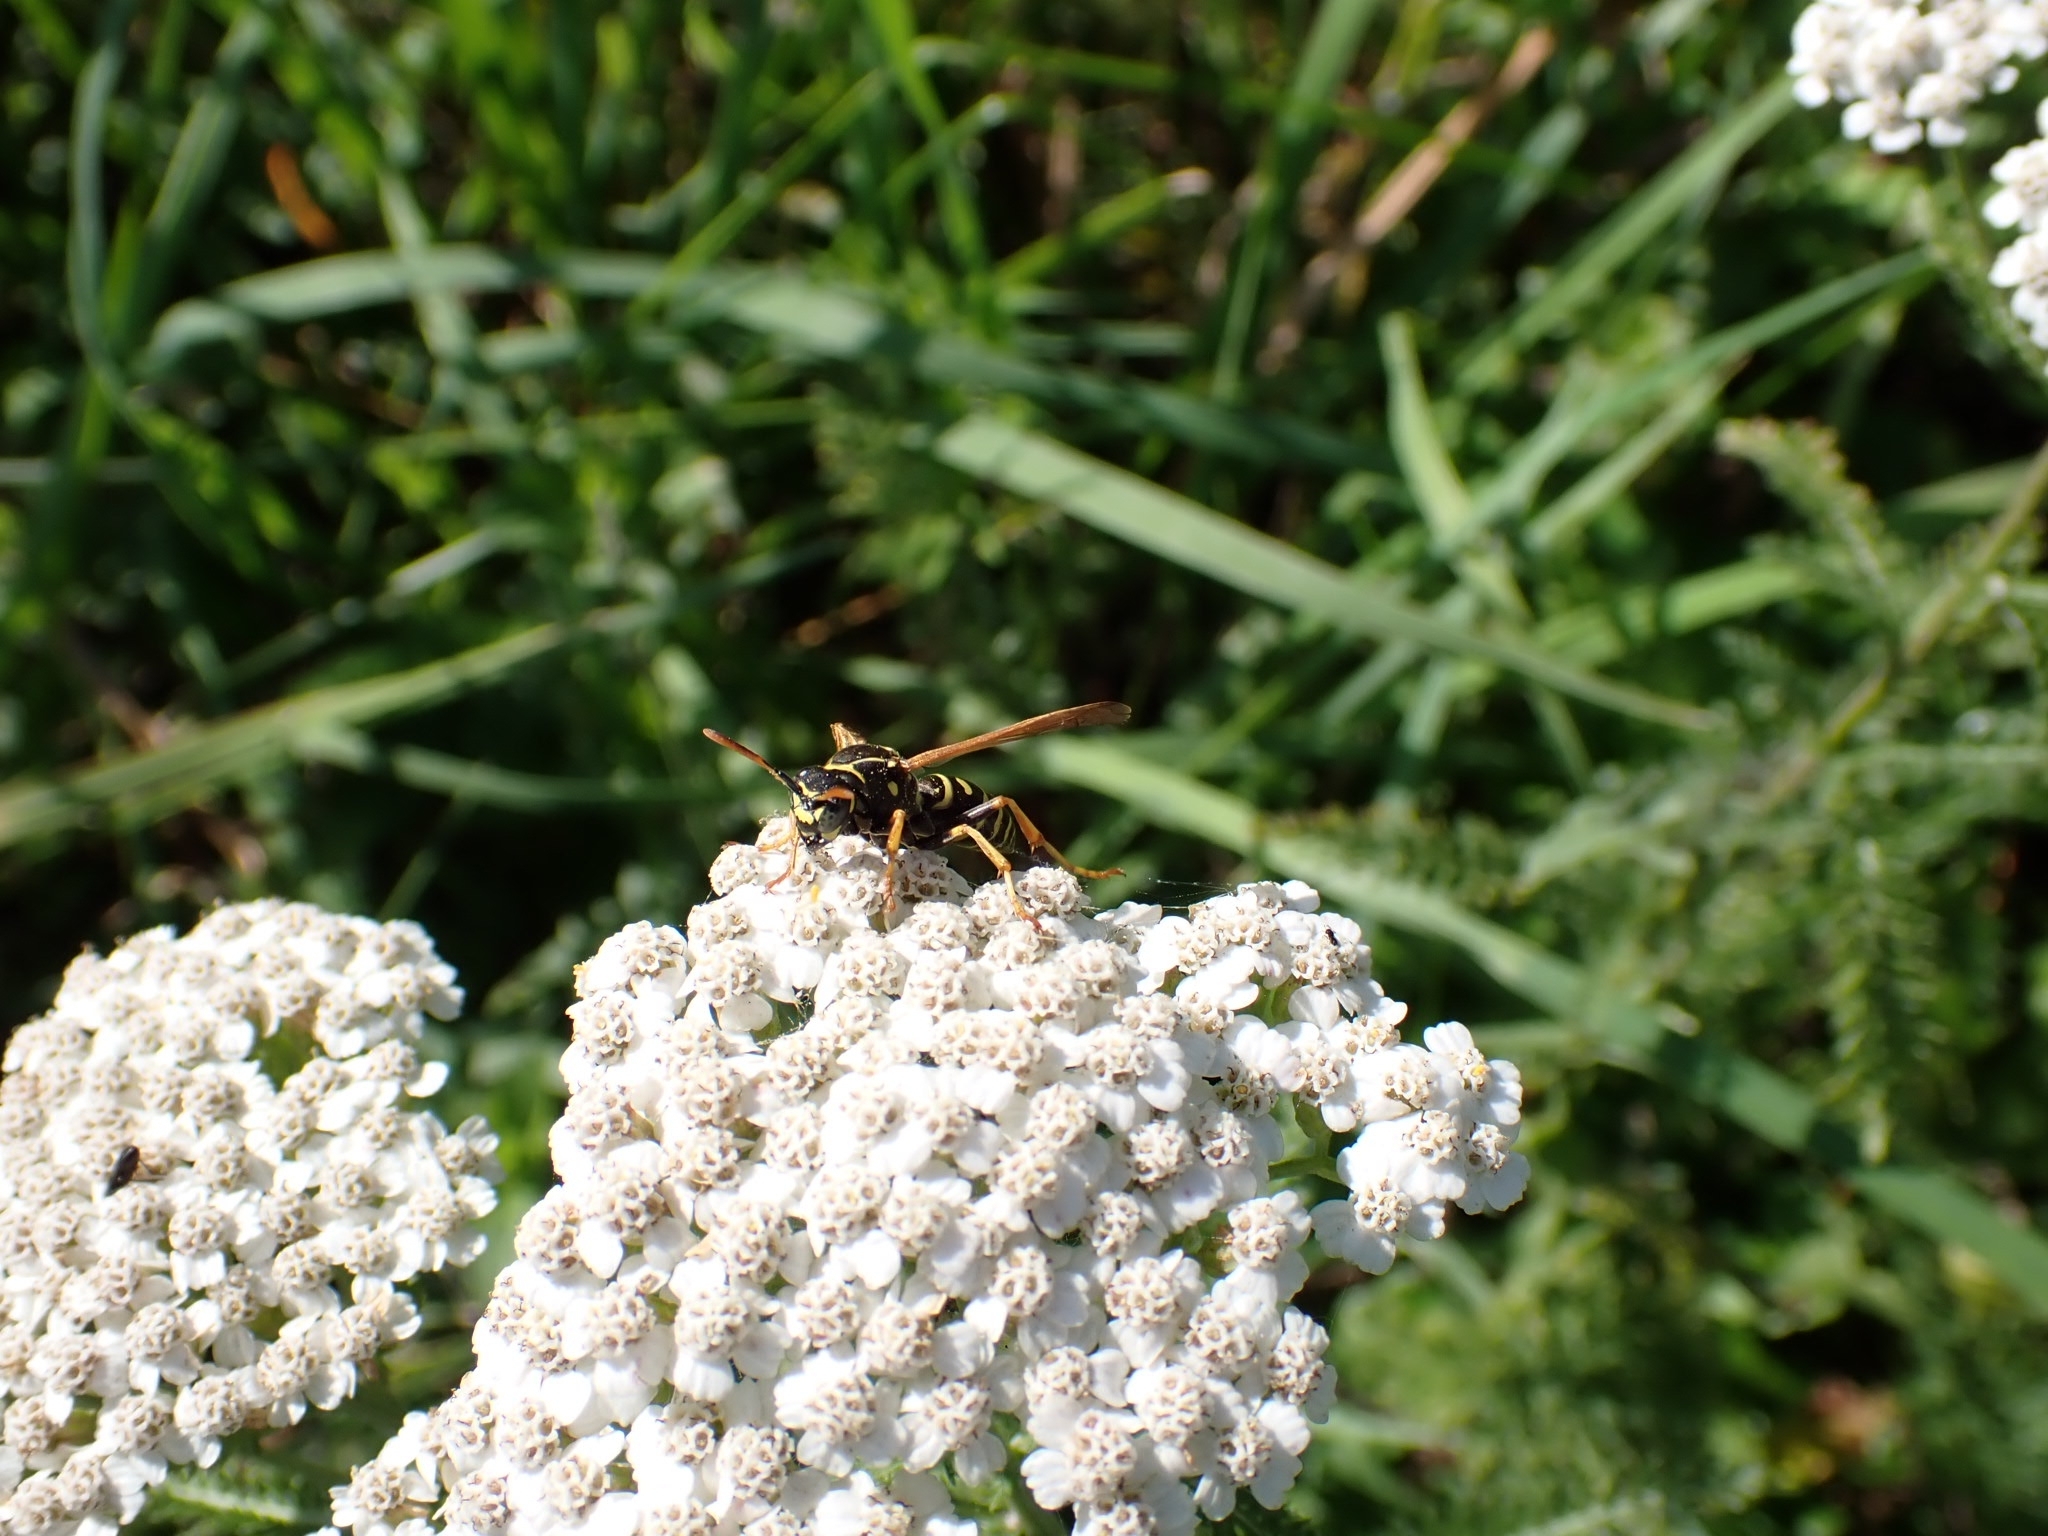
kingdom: Animalia
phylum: Arthropoda
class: Insecta
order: Hymenoptera
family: Eumenidae
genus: Polistes
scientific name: Polistes nimpha
